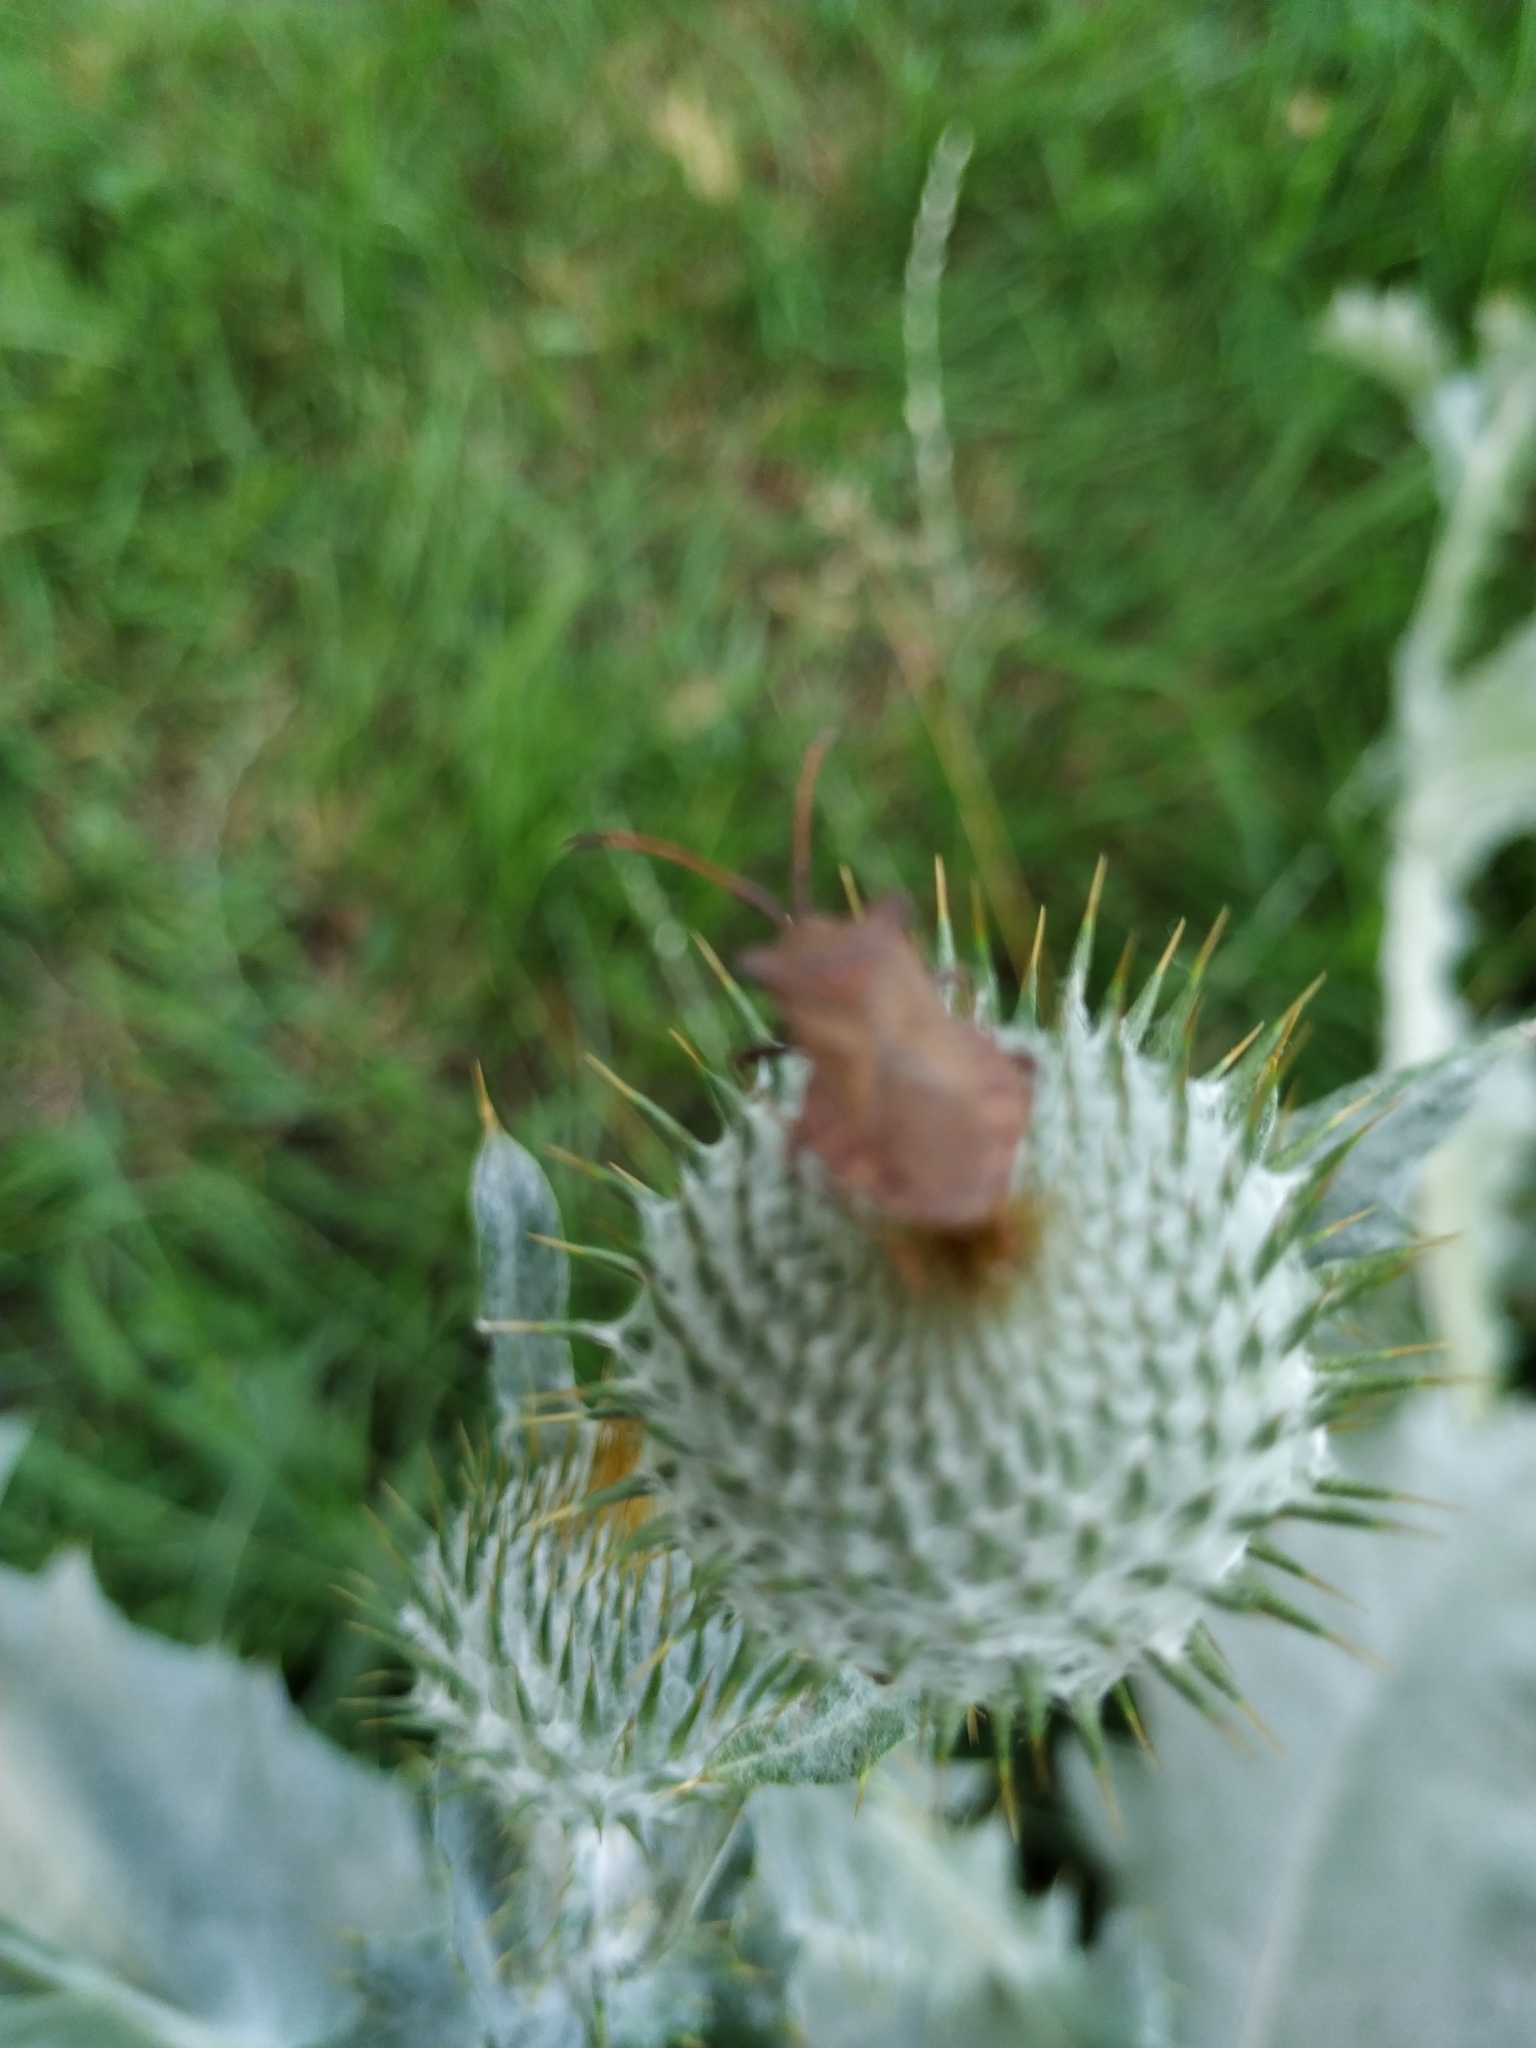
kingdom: Animalia
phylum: Arthropoda
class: Insecta
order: Hemiptera
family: Coreidae
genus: Coreus
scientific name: Coreus marginatus
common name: Dock bug
